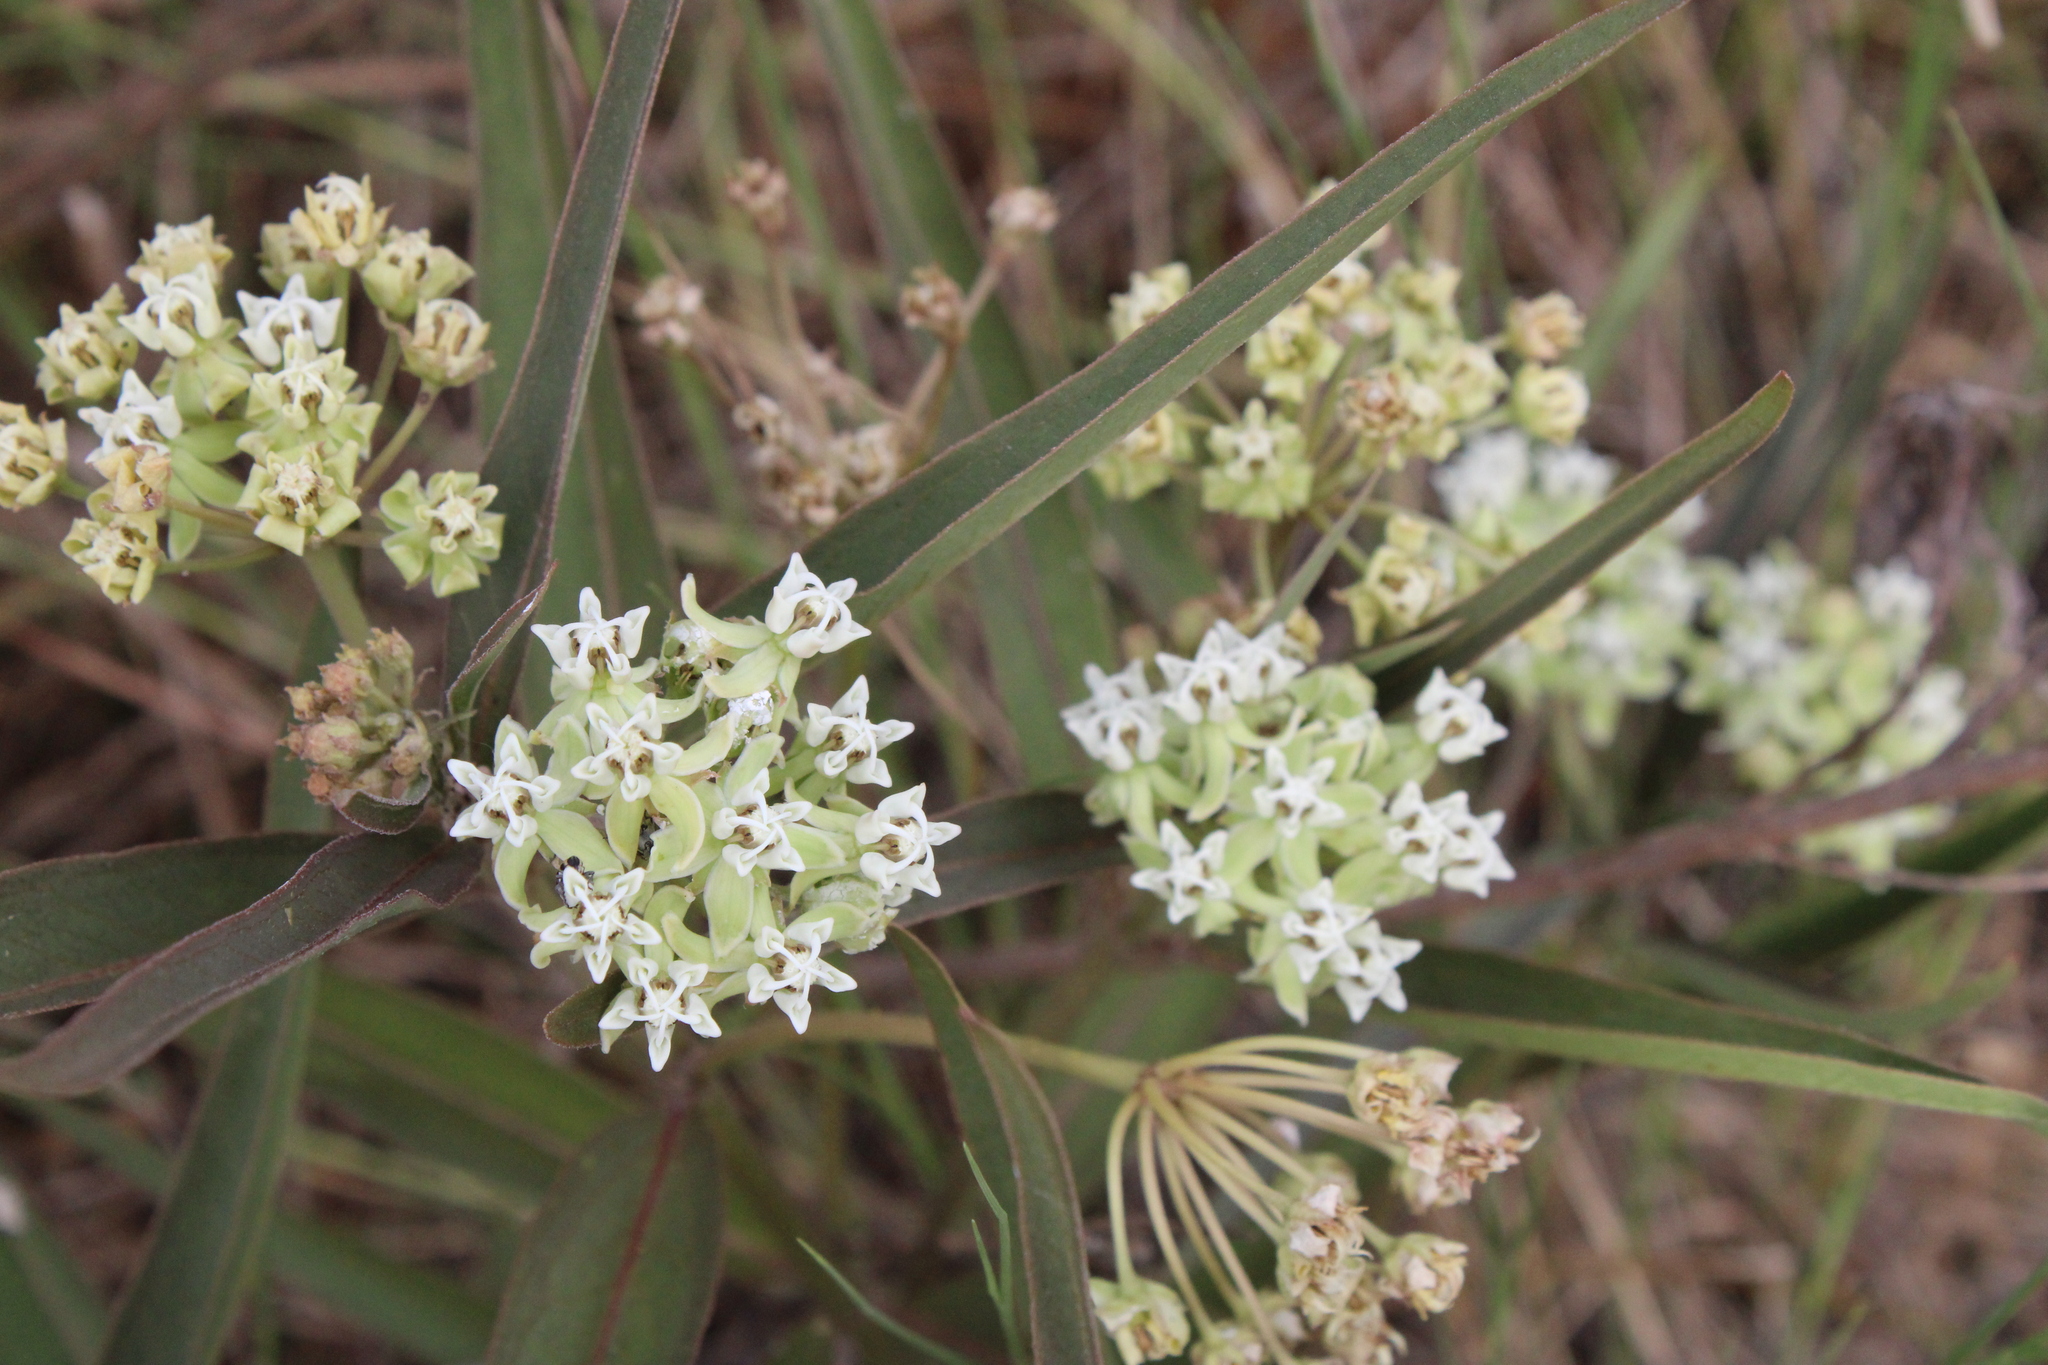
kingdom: Plantae
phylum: Tracheophyta
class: Magnoliopsida
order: Gentianales
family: Apocynaceae
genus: Asclepias
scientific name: Asclepias mellodora
